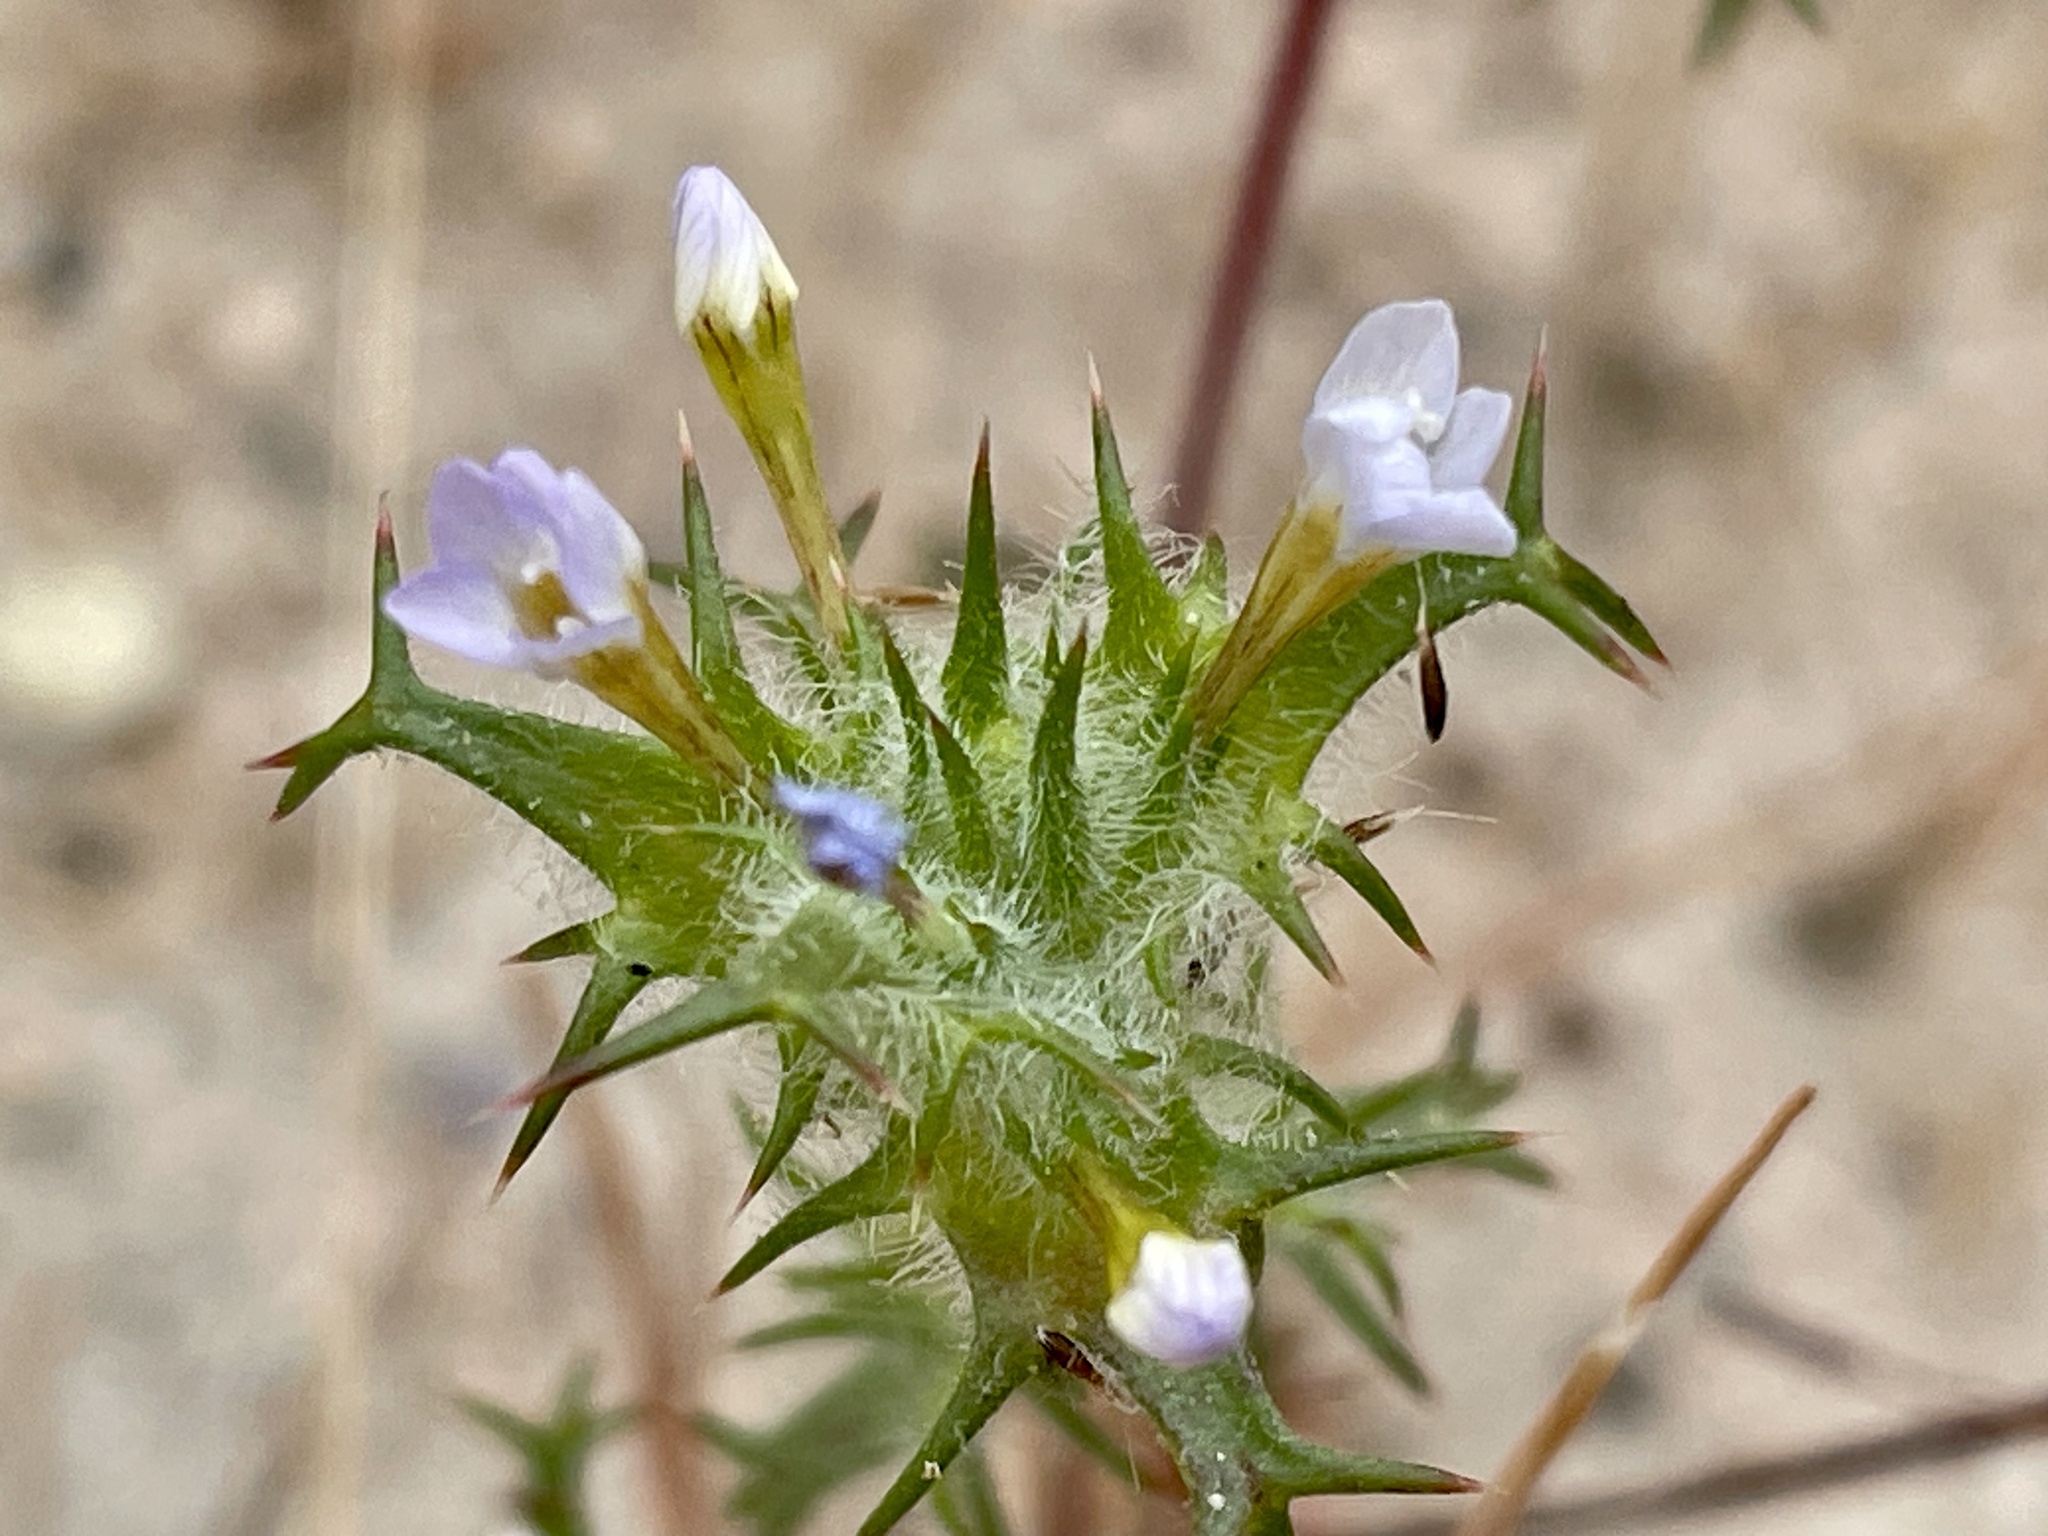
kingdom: Plantae
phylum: Tracheophyta
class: Magnoliopsida
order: Ericales
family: Polemoniaceae
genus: Navarretia
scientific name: Navarretia hamata
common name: Hooked navarretia
